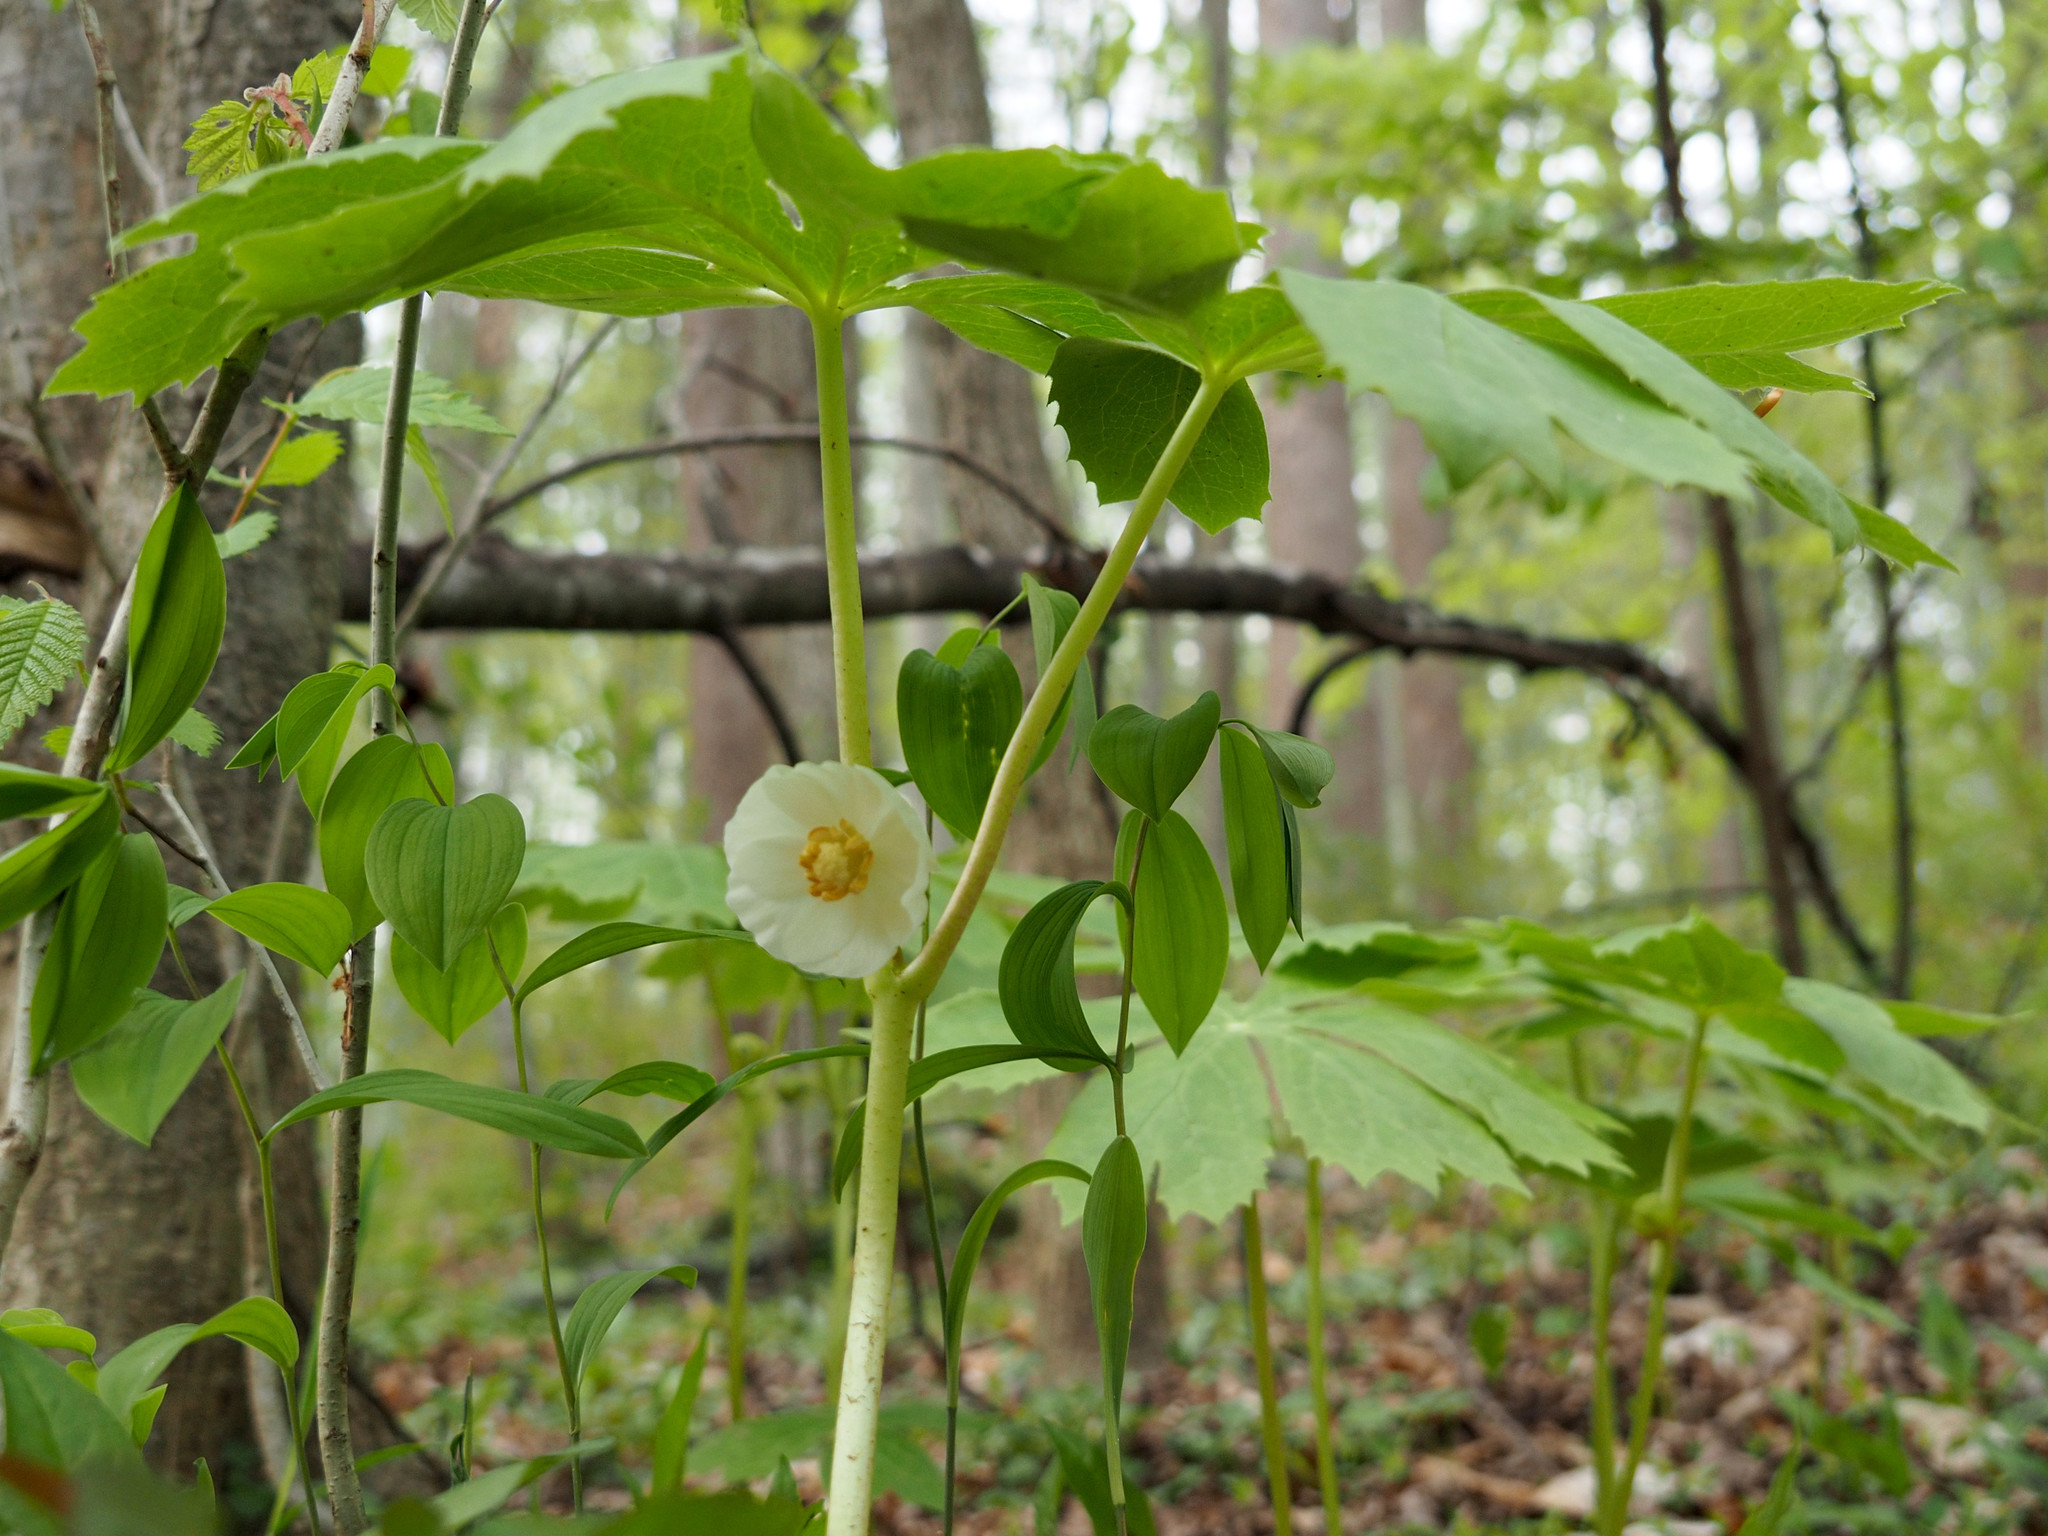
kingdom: Plantae
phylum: Tracheophyta
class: Magnoliopsida
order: Ranunculales
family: Berberidaceae
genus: Podophyllum
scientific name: Podophyllum peltatum
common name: Wild mandrake
